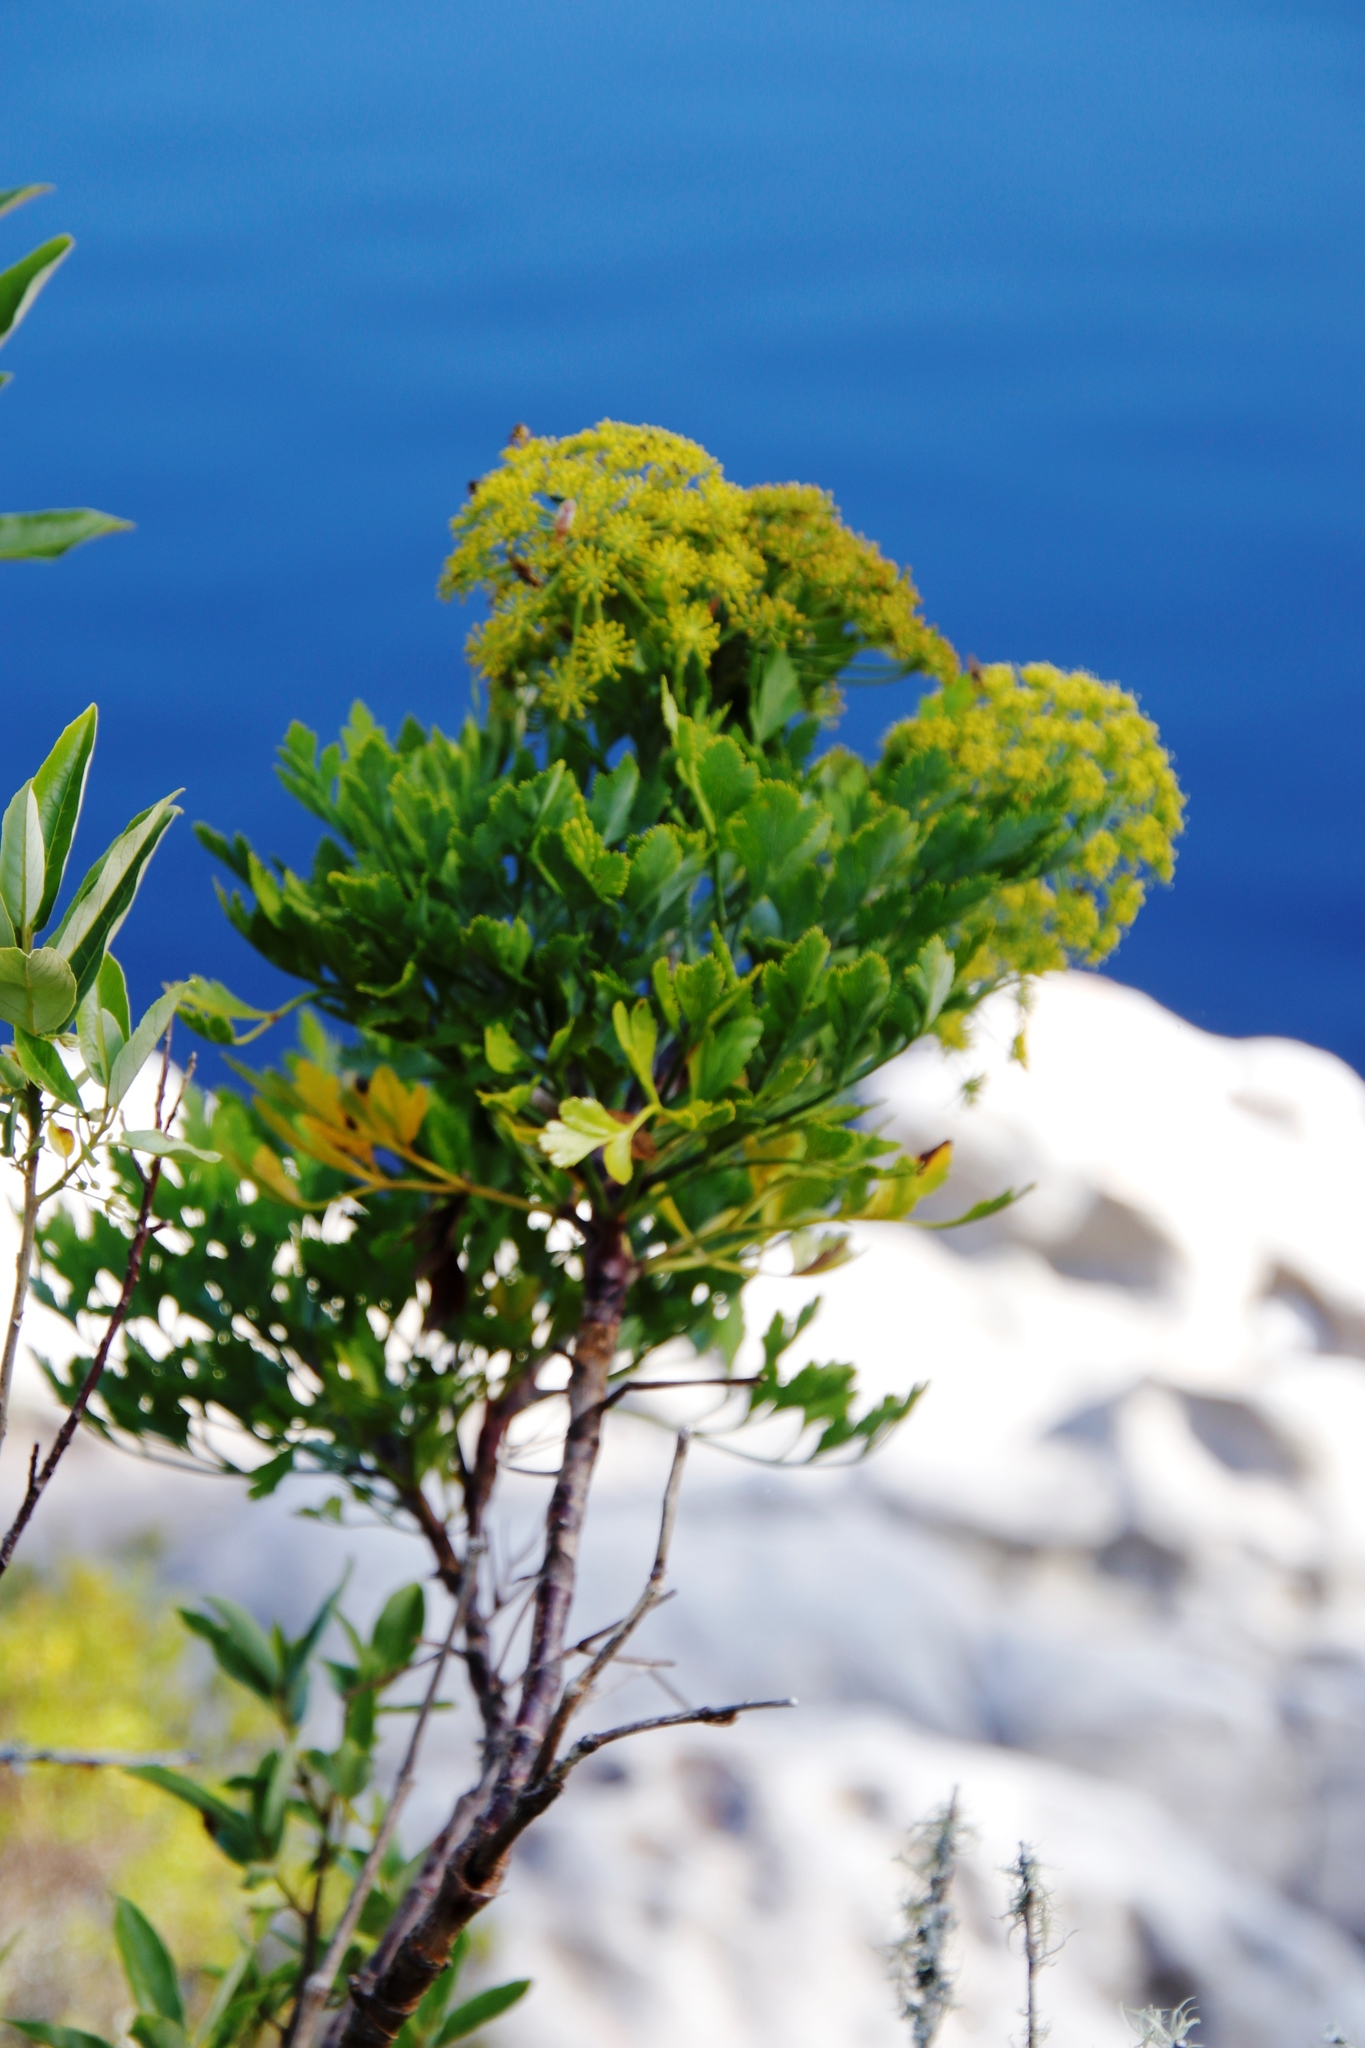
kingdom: Plantae
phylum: Tracheophyta
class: Magnoliopsida
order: Apiales
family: Apiaceae
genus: Notobubon
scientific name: Notobubon galbanum
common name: Blisterbush
